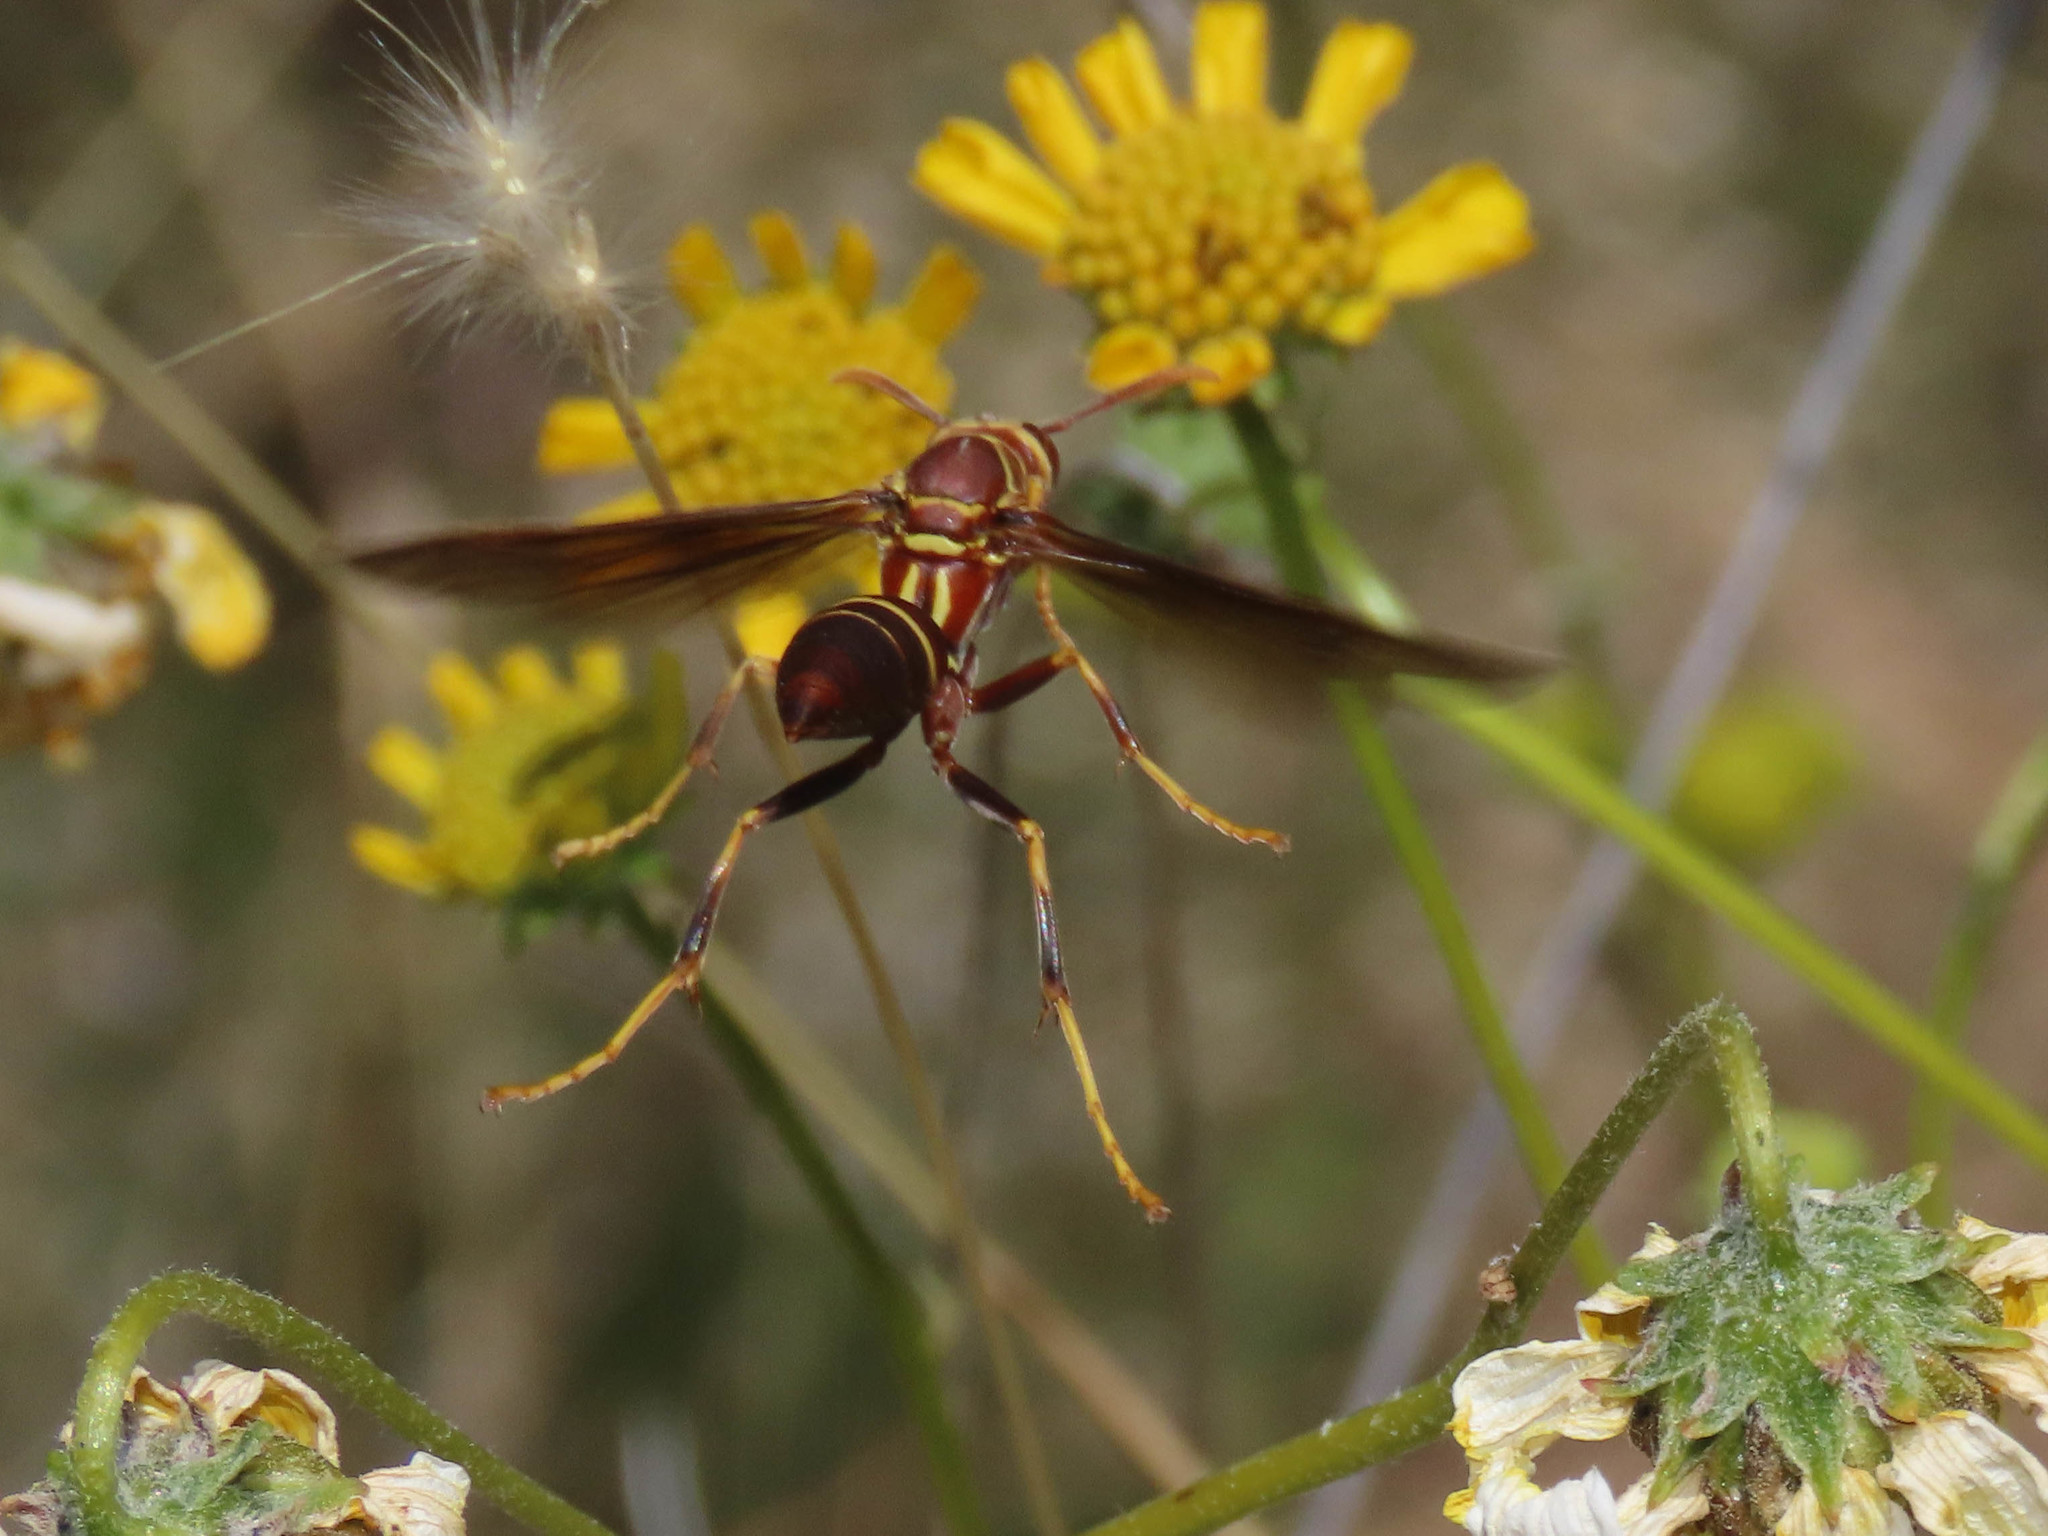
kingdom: Animalia
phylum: Arthropoda
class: Insecta
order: Hymenoptera
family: Eumenidae
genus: Polistes
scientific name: Polistes arizonensis
